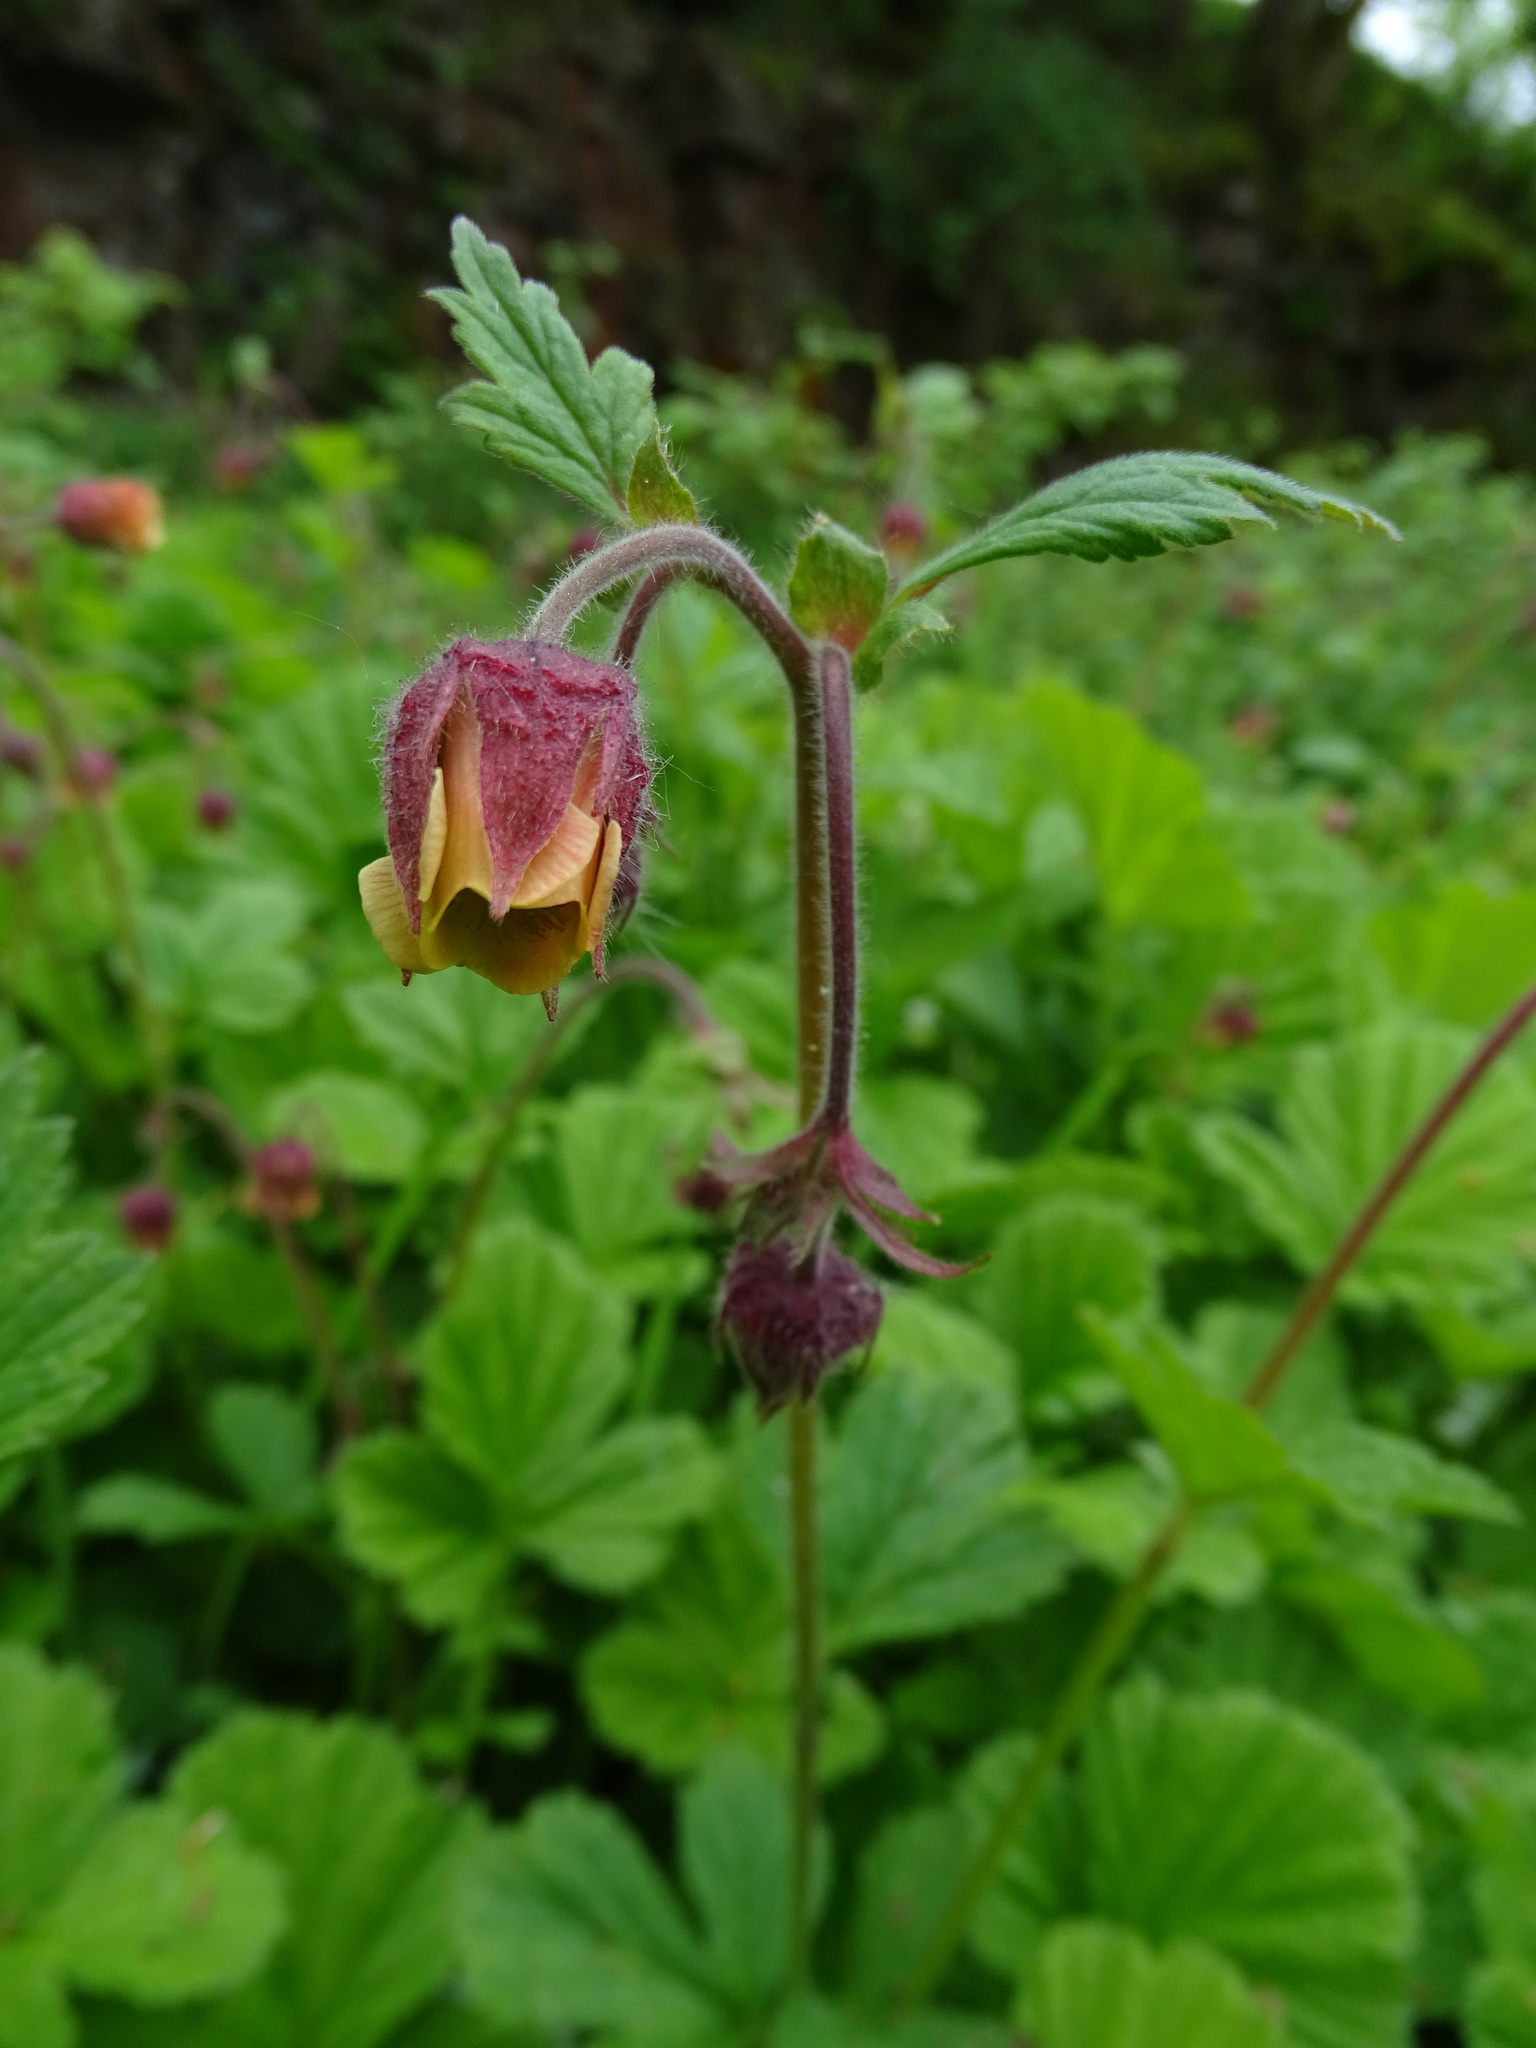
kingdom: Plantae
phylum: Tracheophyta
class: Magnoliopsida
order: Rosales
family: Rosaceae
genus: Geum
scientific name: Geum rivale
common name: Water avens
